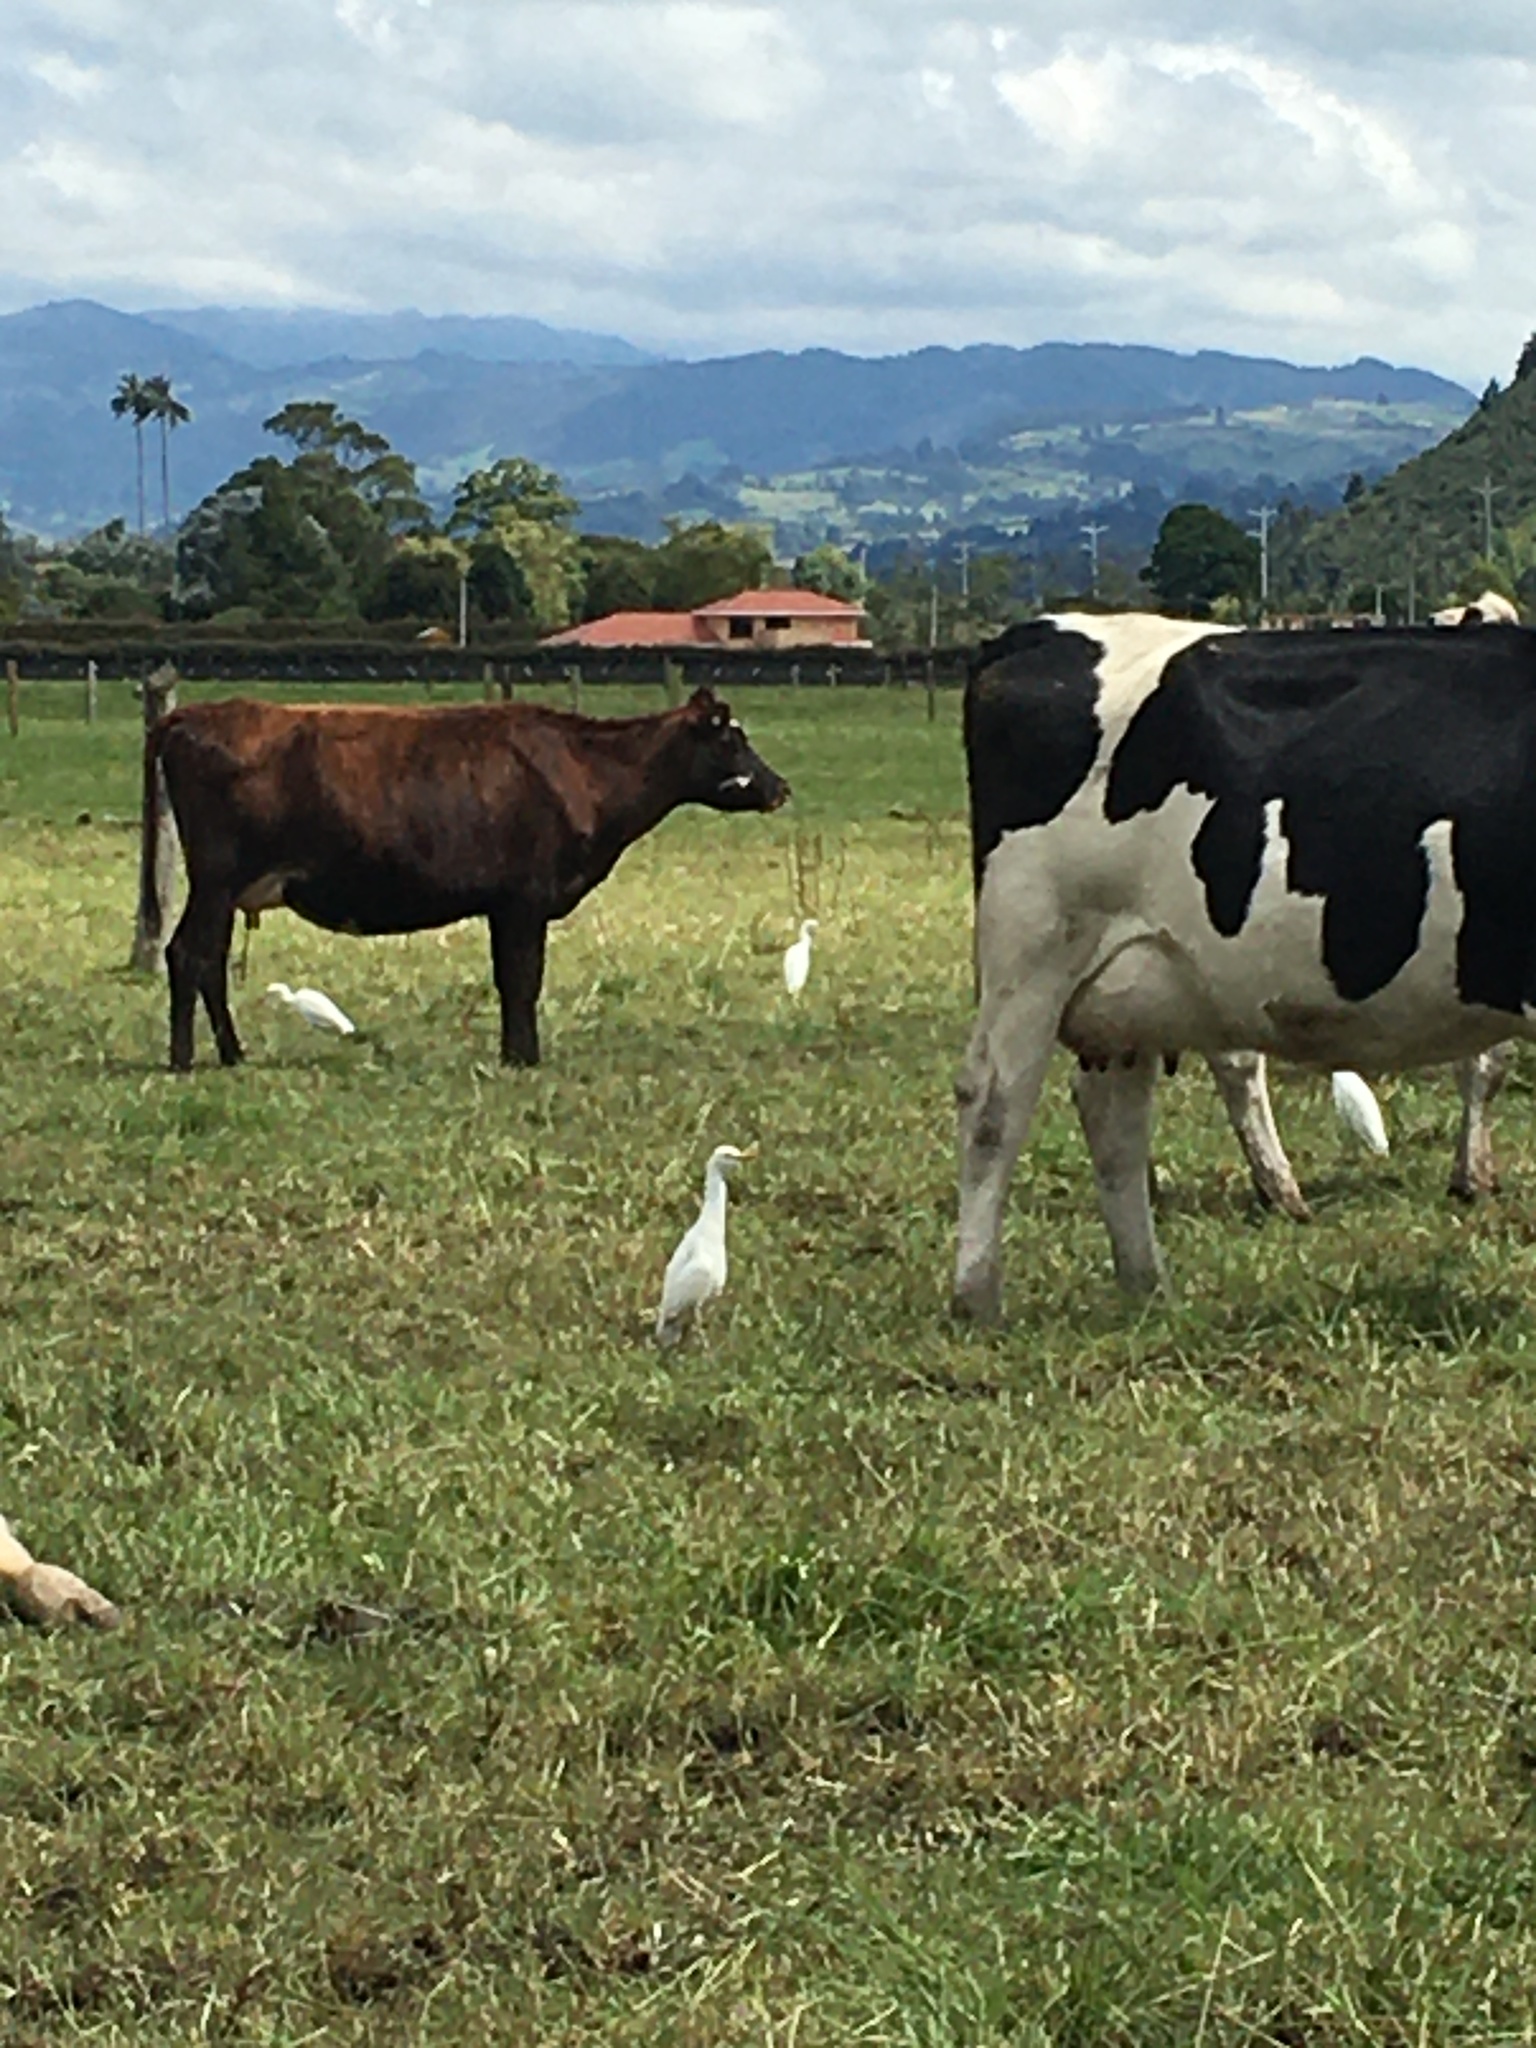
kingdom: Animalia
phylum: Chordata
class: Aves
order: Pelecaniformes
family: Ardeidae
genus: Bubulcus
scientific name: Bubulcus ibis
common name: Cattle egret
